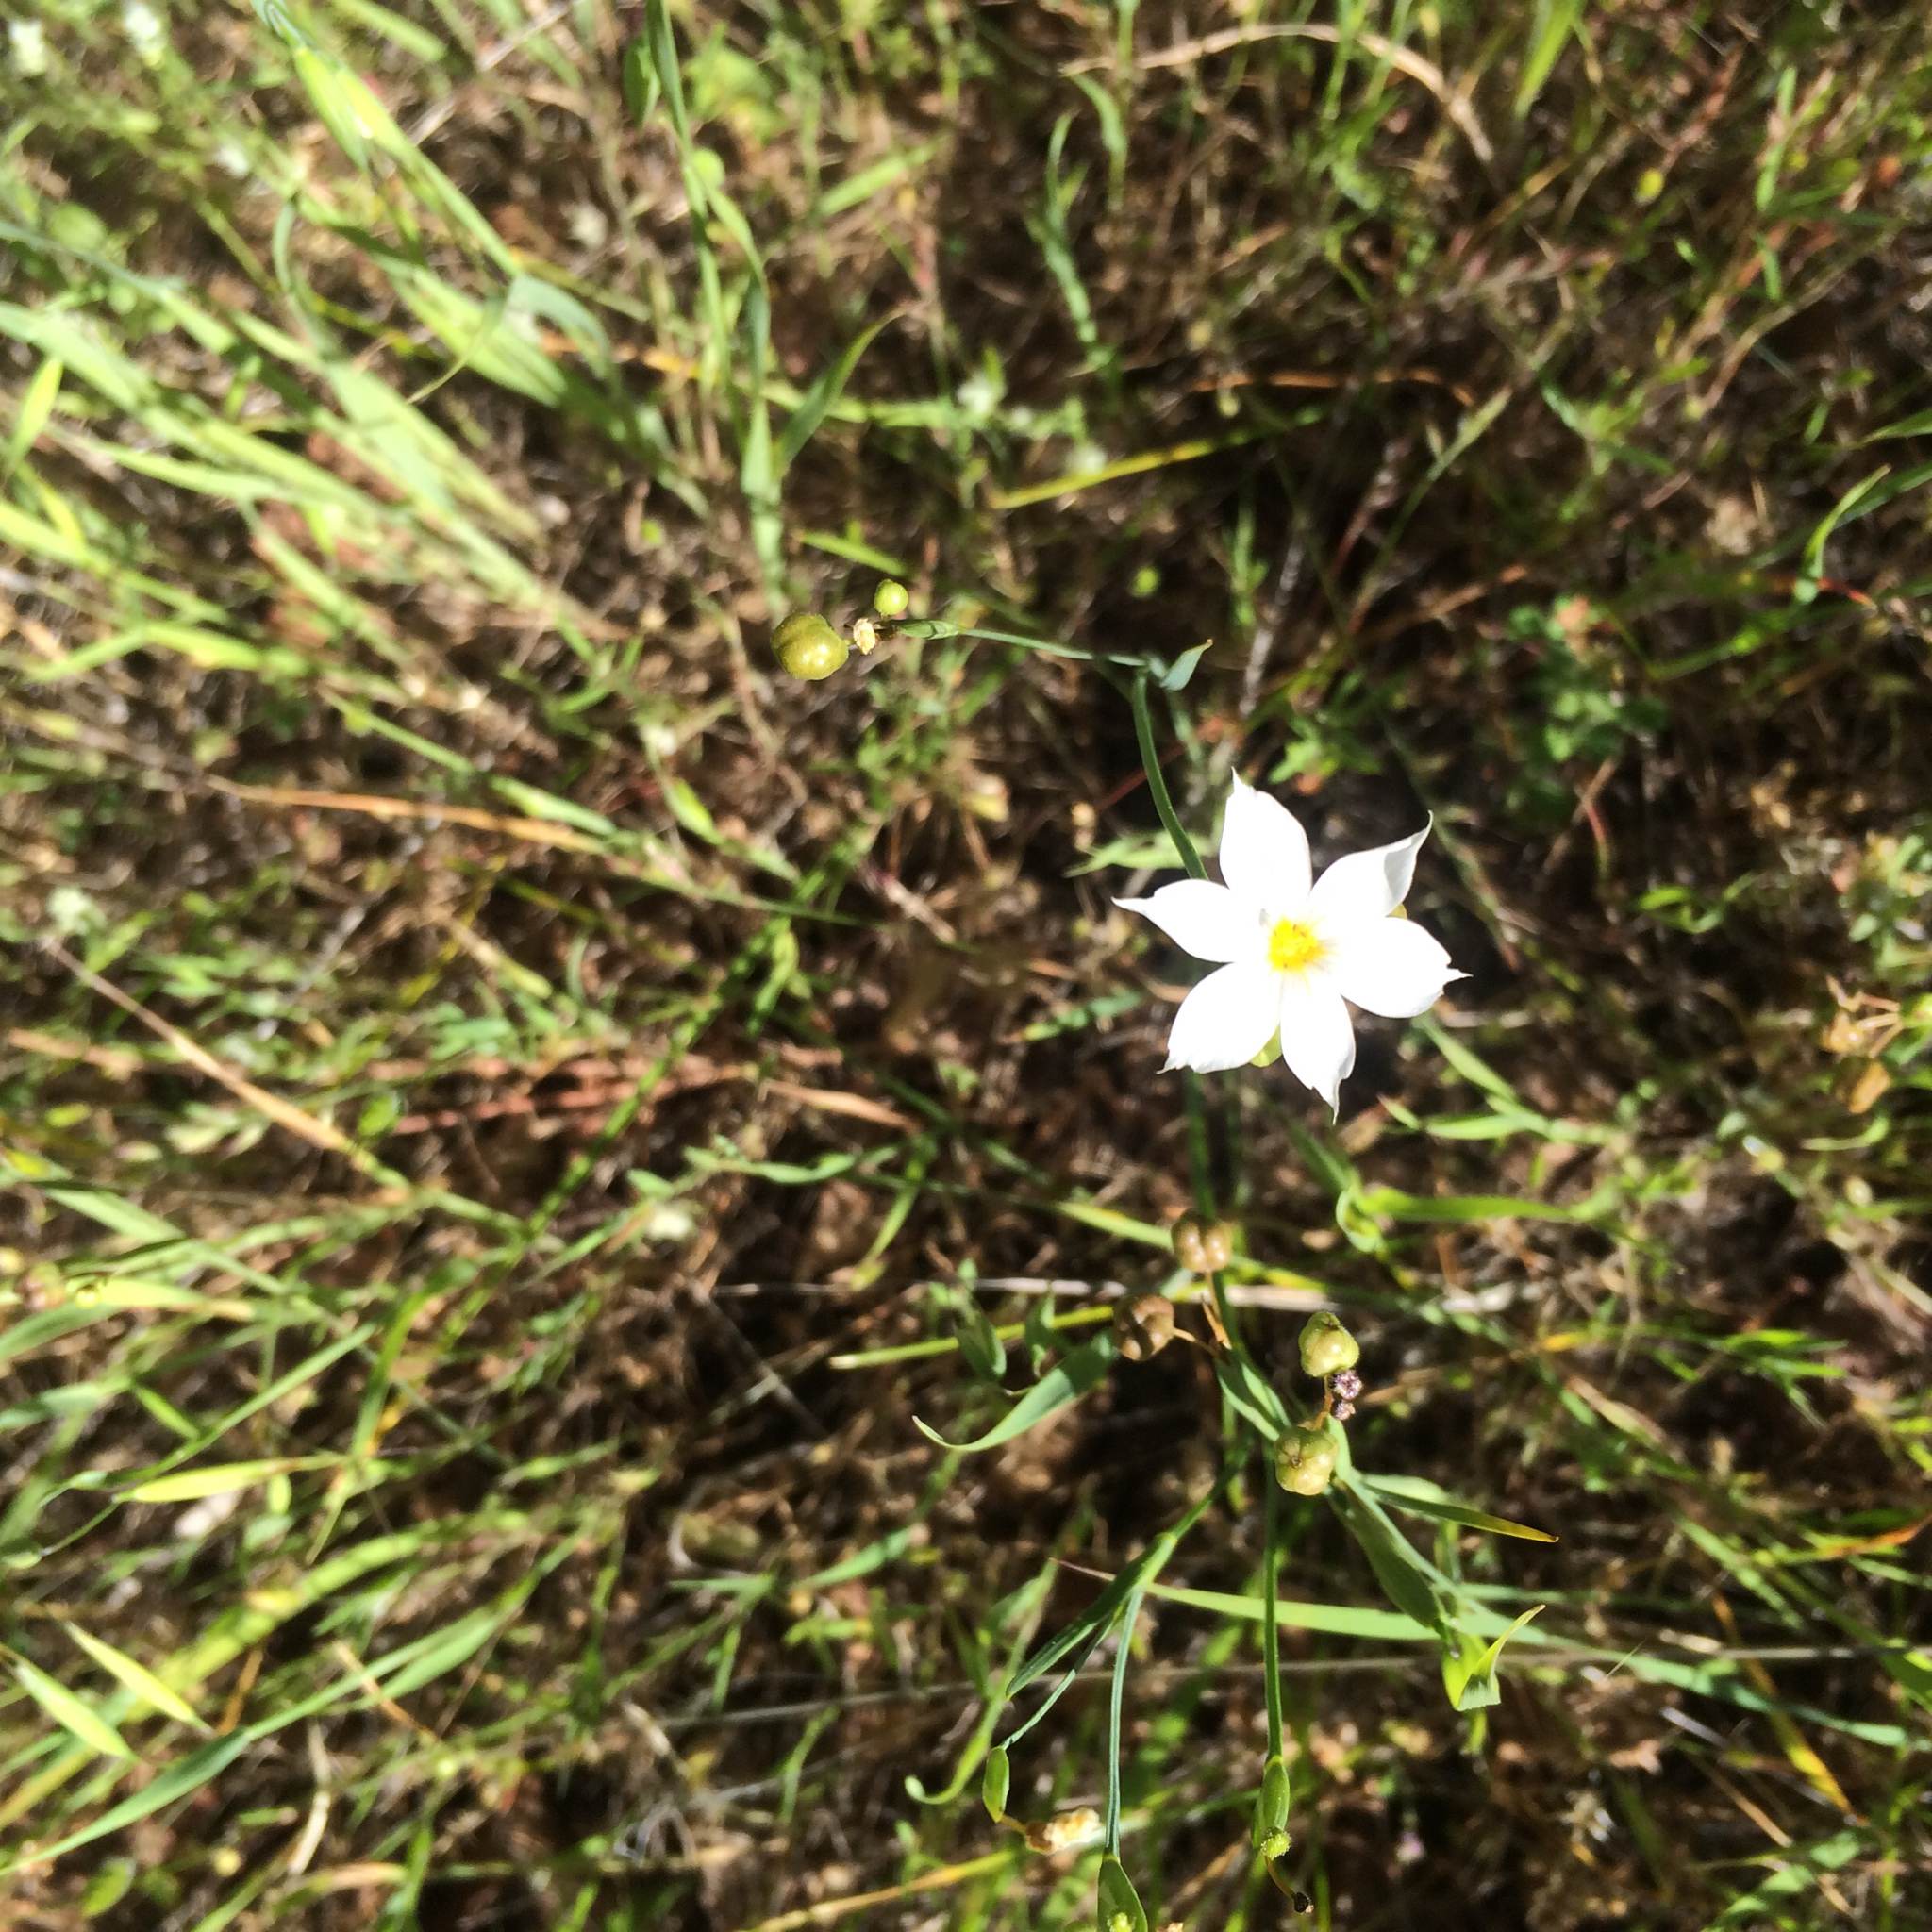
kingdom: Plantae
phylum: Tracheophyta
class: Liliopsida
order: Asparagales
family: Iridaceae
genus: Sisyrinchium
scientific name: Sisyrinchium bellum
